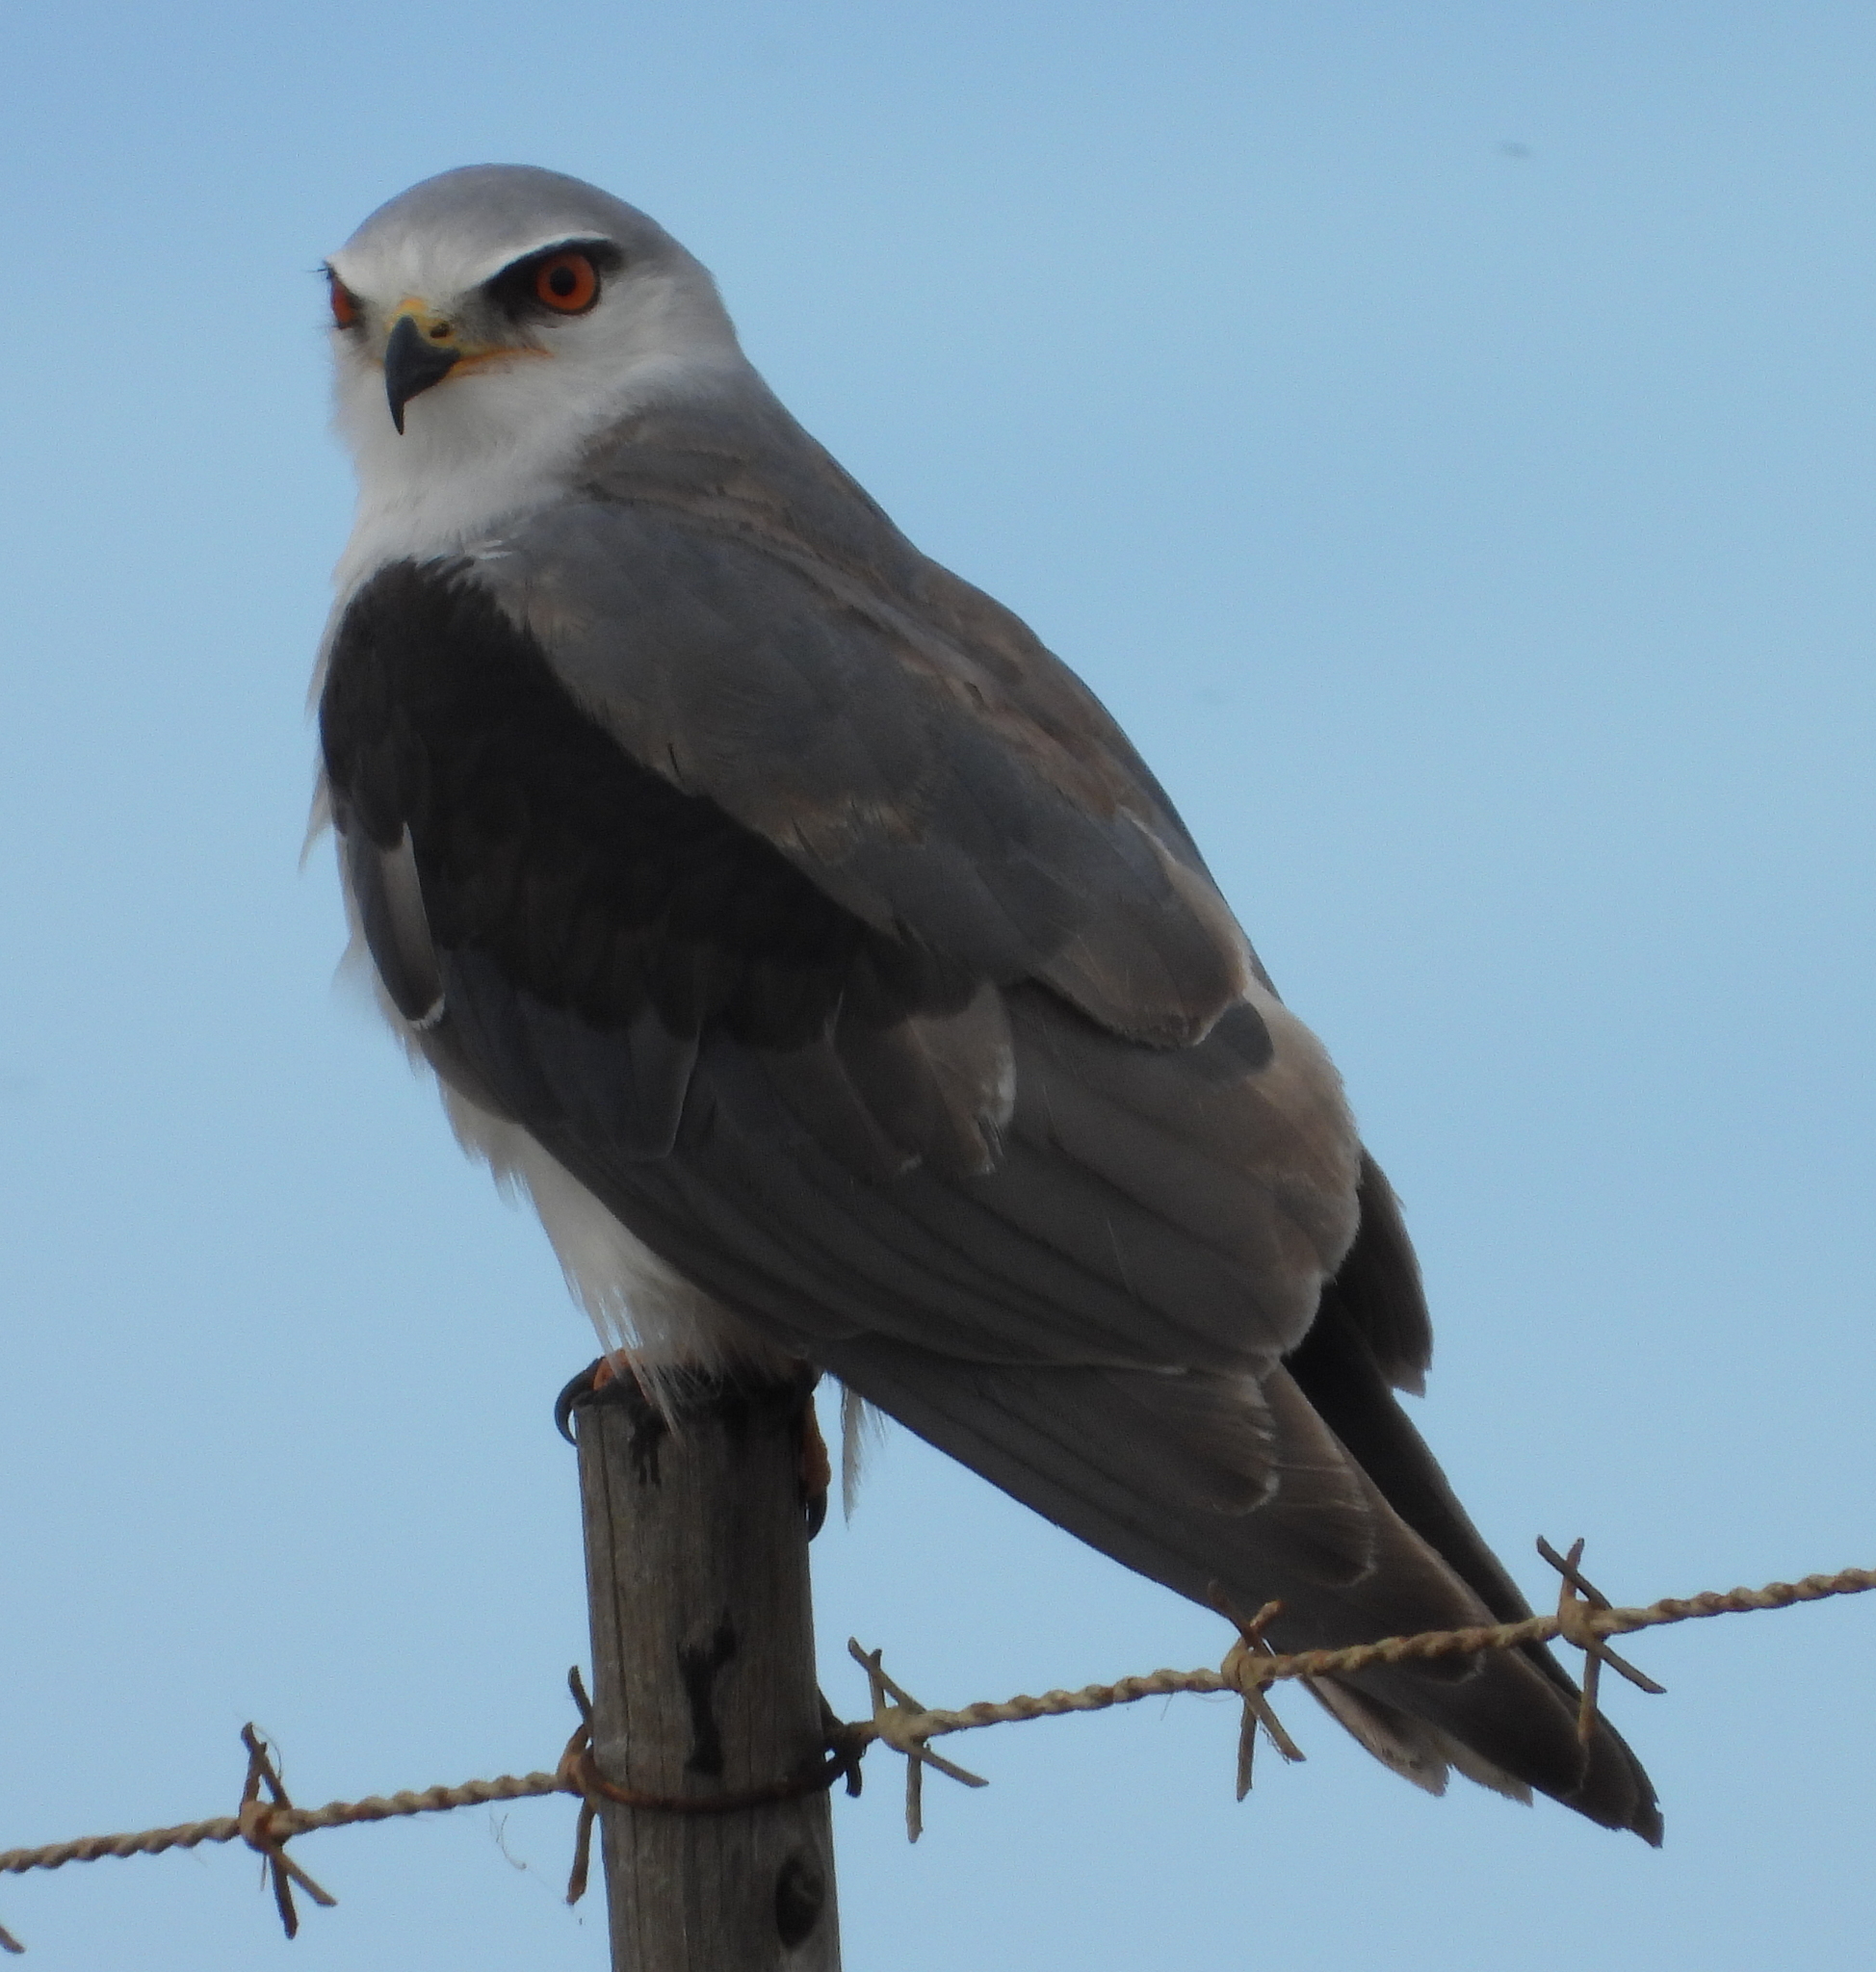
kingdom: Animalia
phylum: Chordata
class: Aves
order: Accipitriformes
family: Accipitridae
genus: Elanus
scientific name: Elanus caeruleus
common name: Black-winged kite
